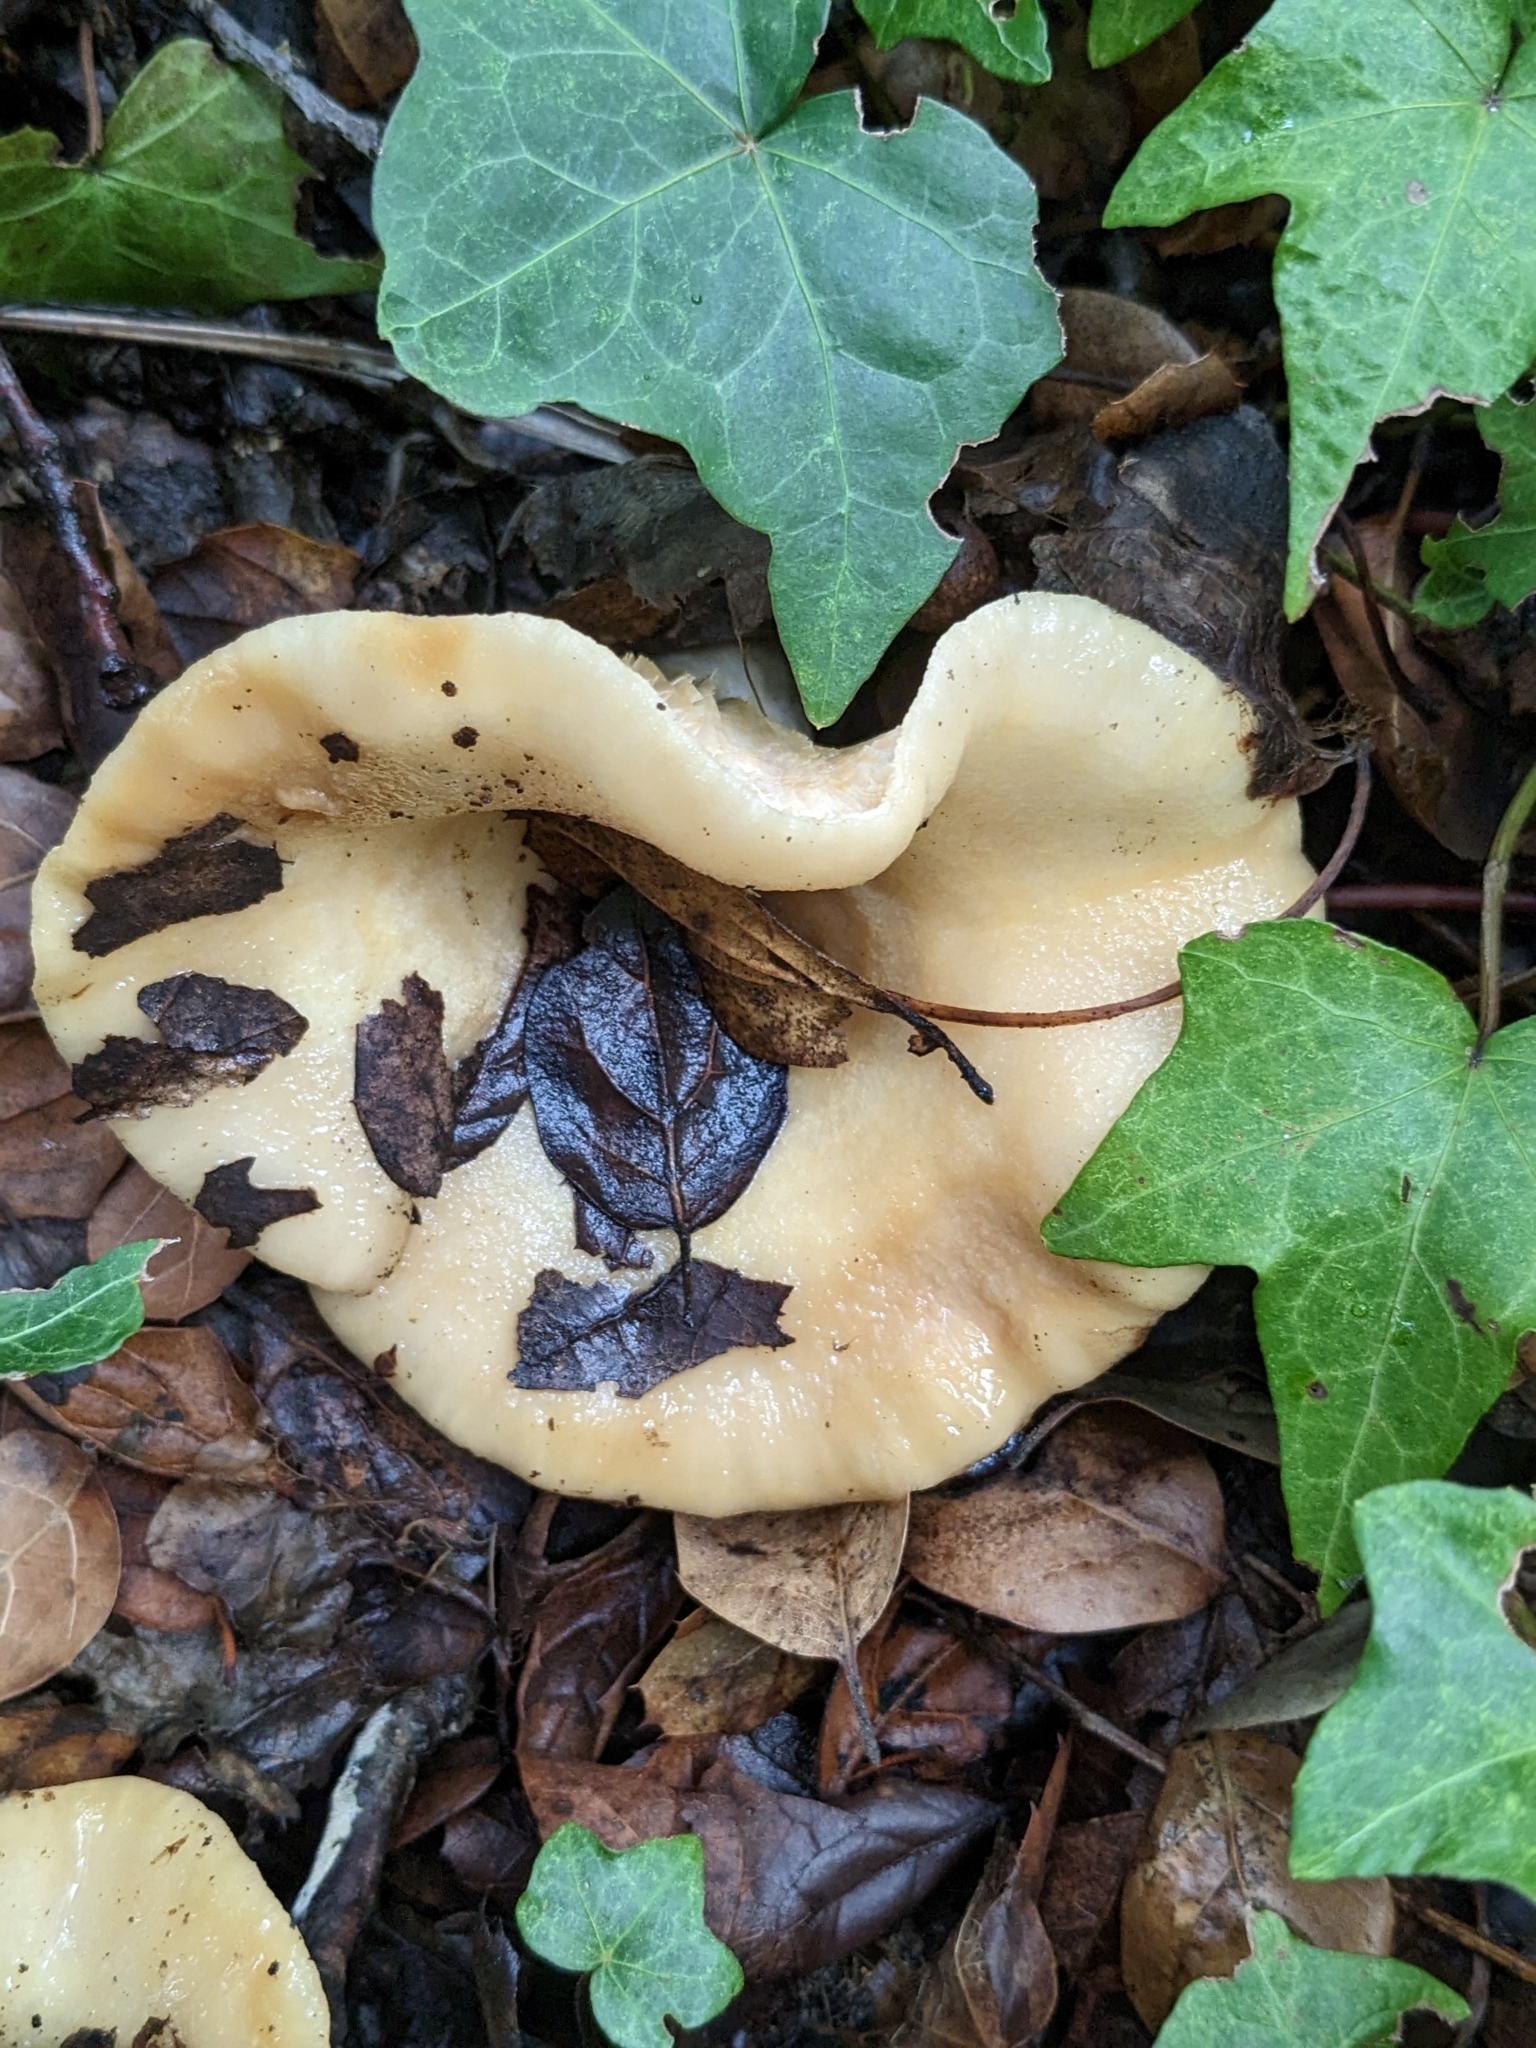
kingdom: Fungi
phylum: Basidiomycota
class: Agaricomycetes
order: Russulales
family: Russulaceae
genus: Lactarius
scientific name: Lactarius alnicola
